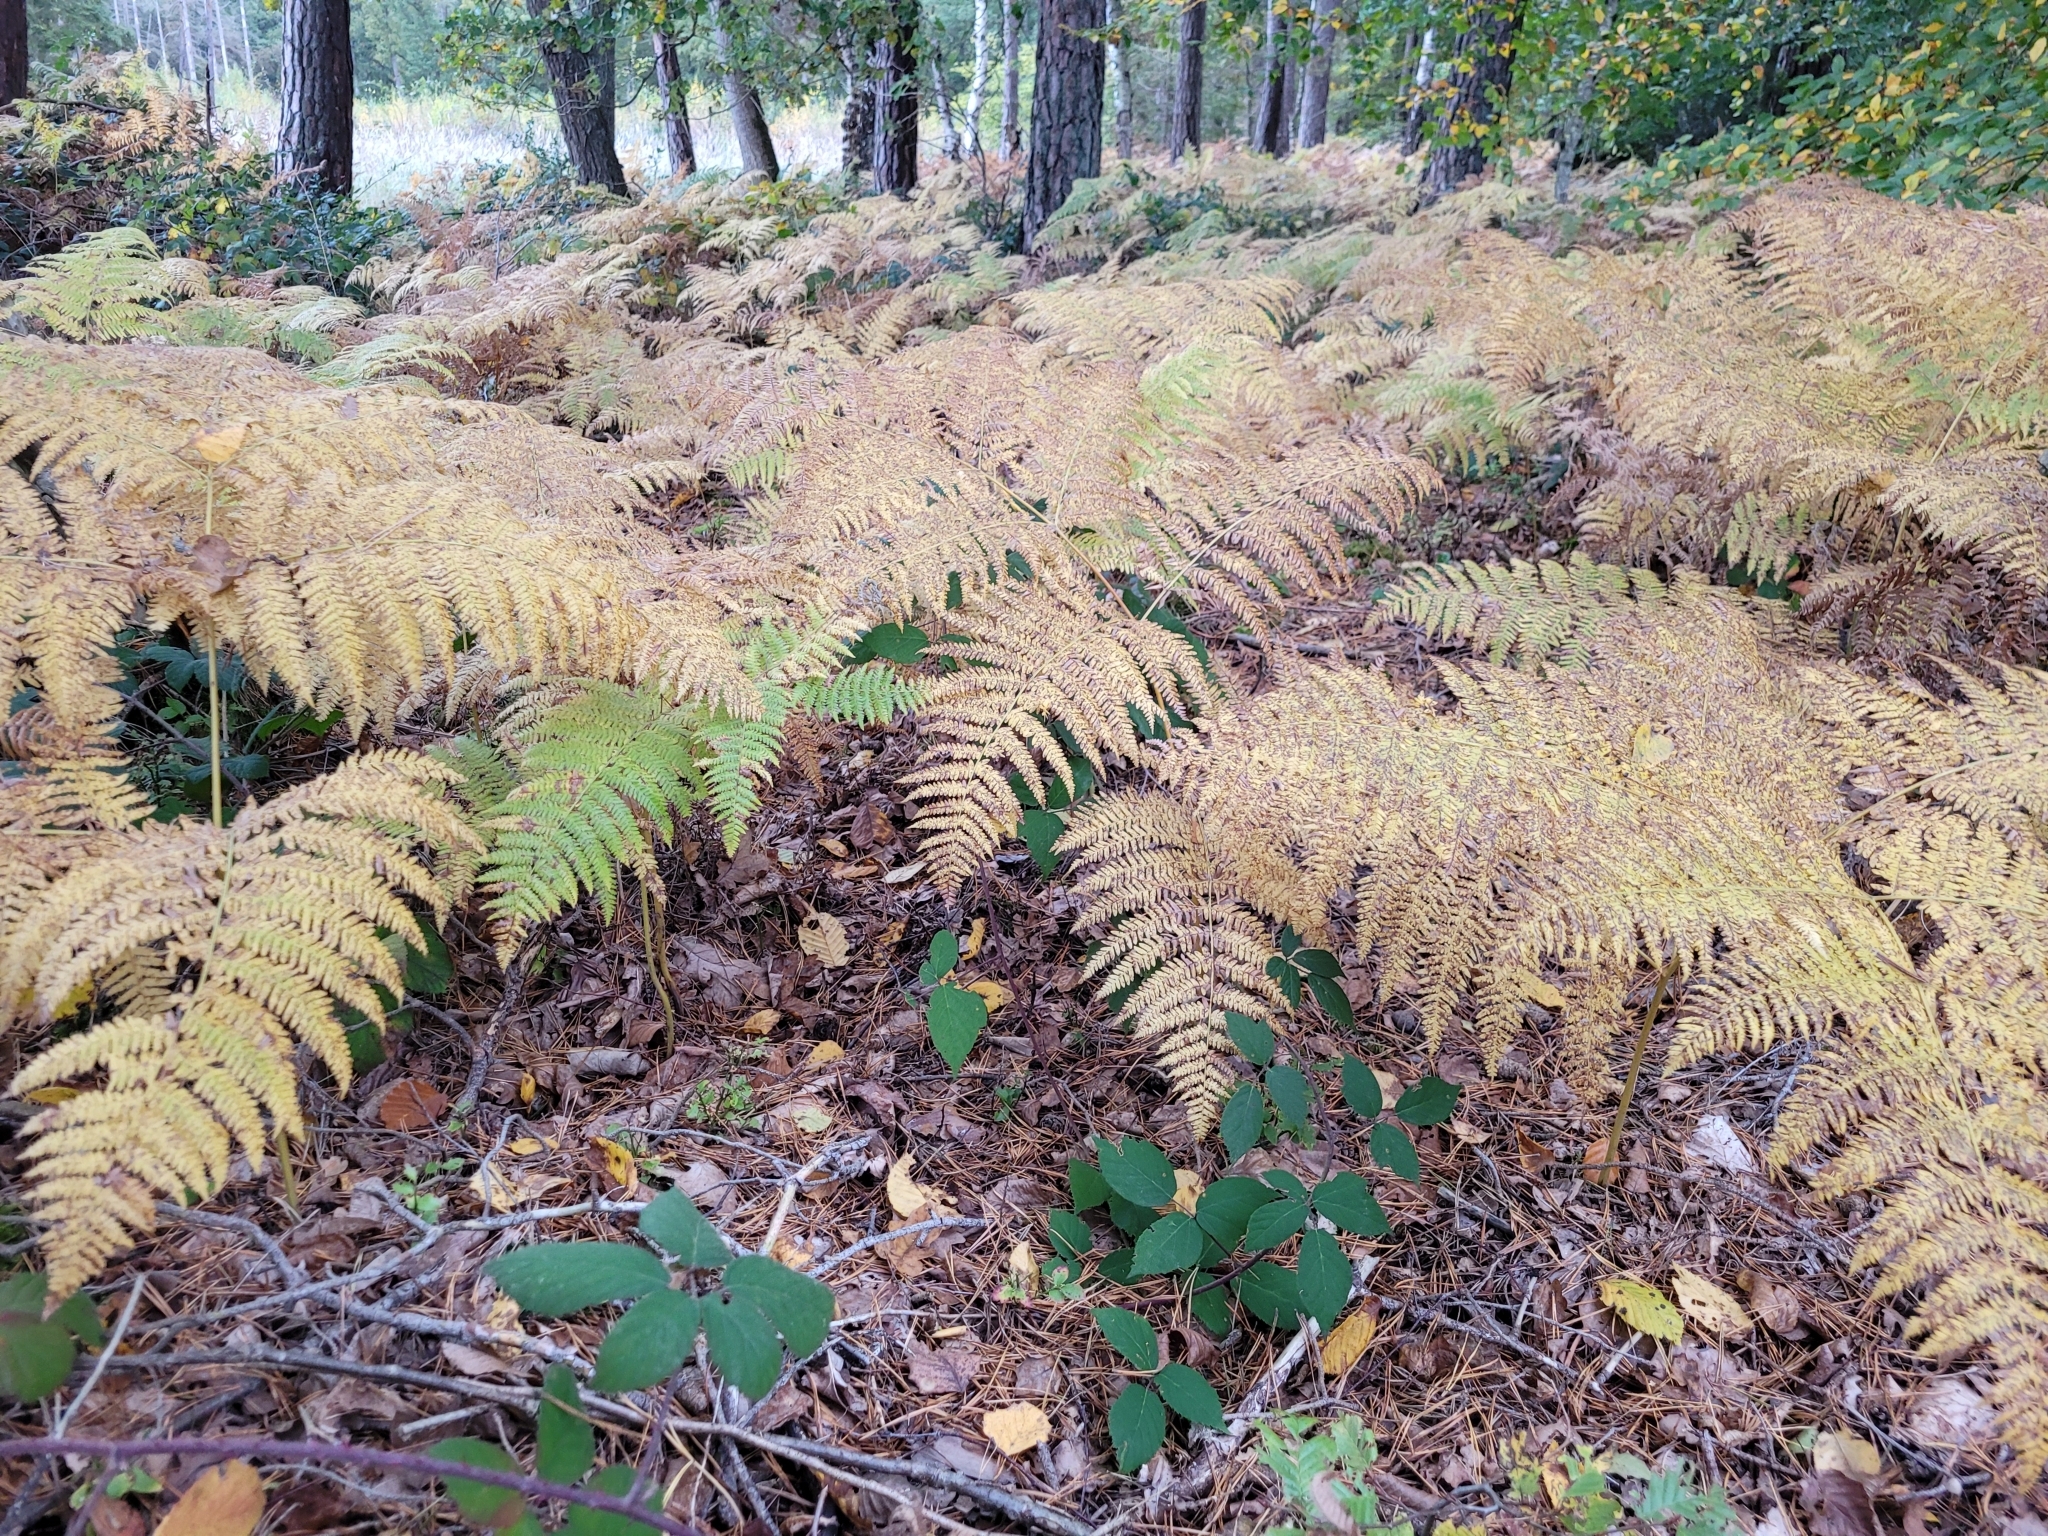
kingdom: Plantae
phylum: Tracheophyta
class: Polypodiopsida
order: Polypodiales
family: Dennstaedtiaceae
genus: Pteridium
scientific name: Pteridium aquilinum
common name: Bracken
